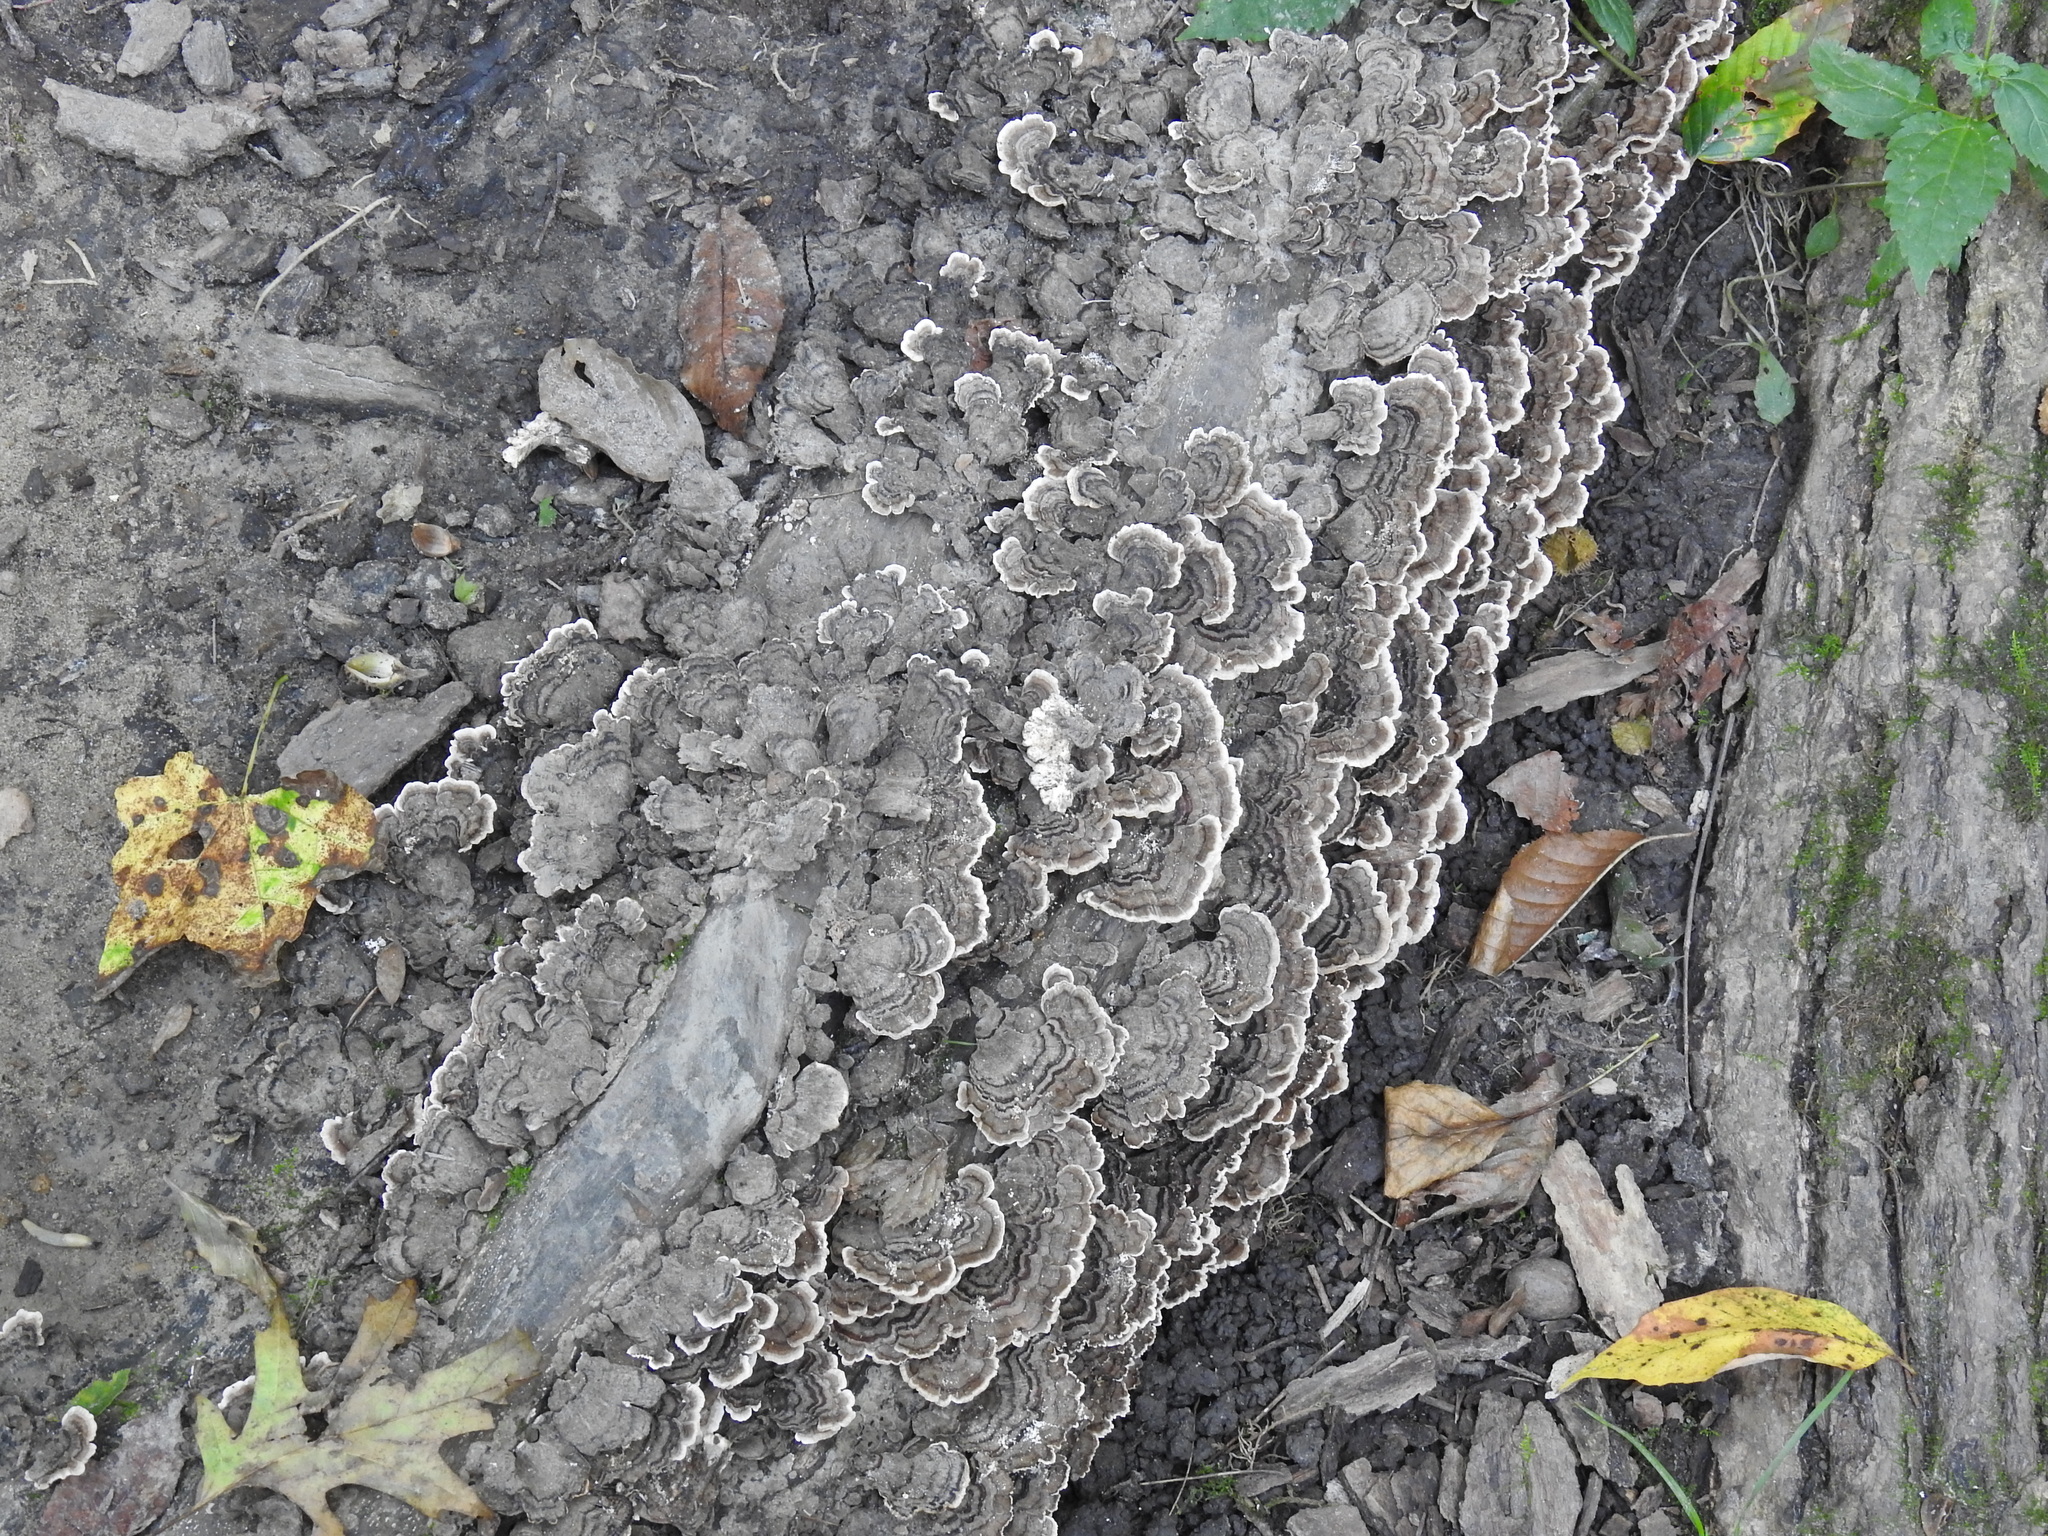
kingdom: Fungi
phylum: Basidiomycota
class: Agaricomycetes
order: Polyporales
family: Polyporaceae
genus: Trametes
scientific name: Trametes versicolor
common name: Turkeytail
